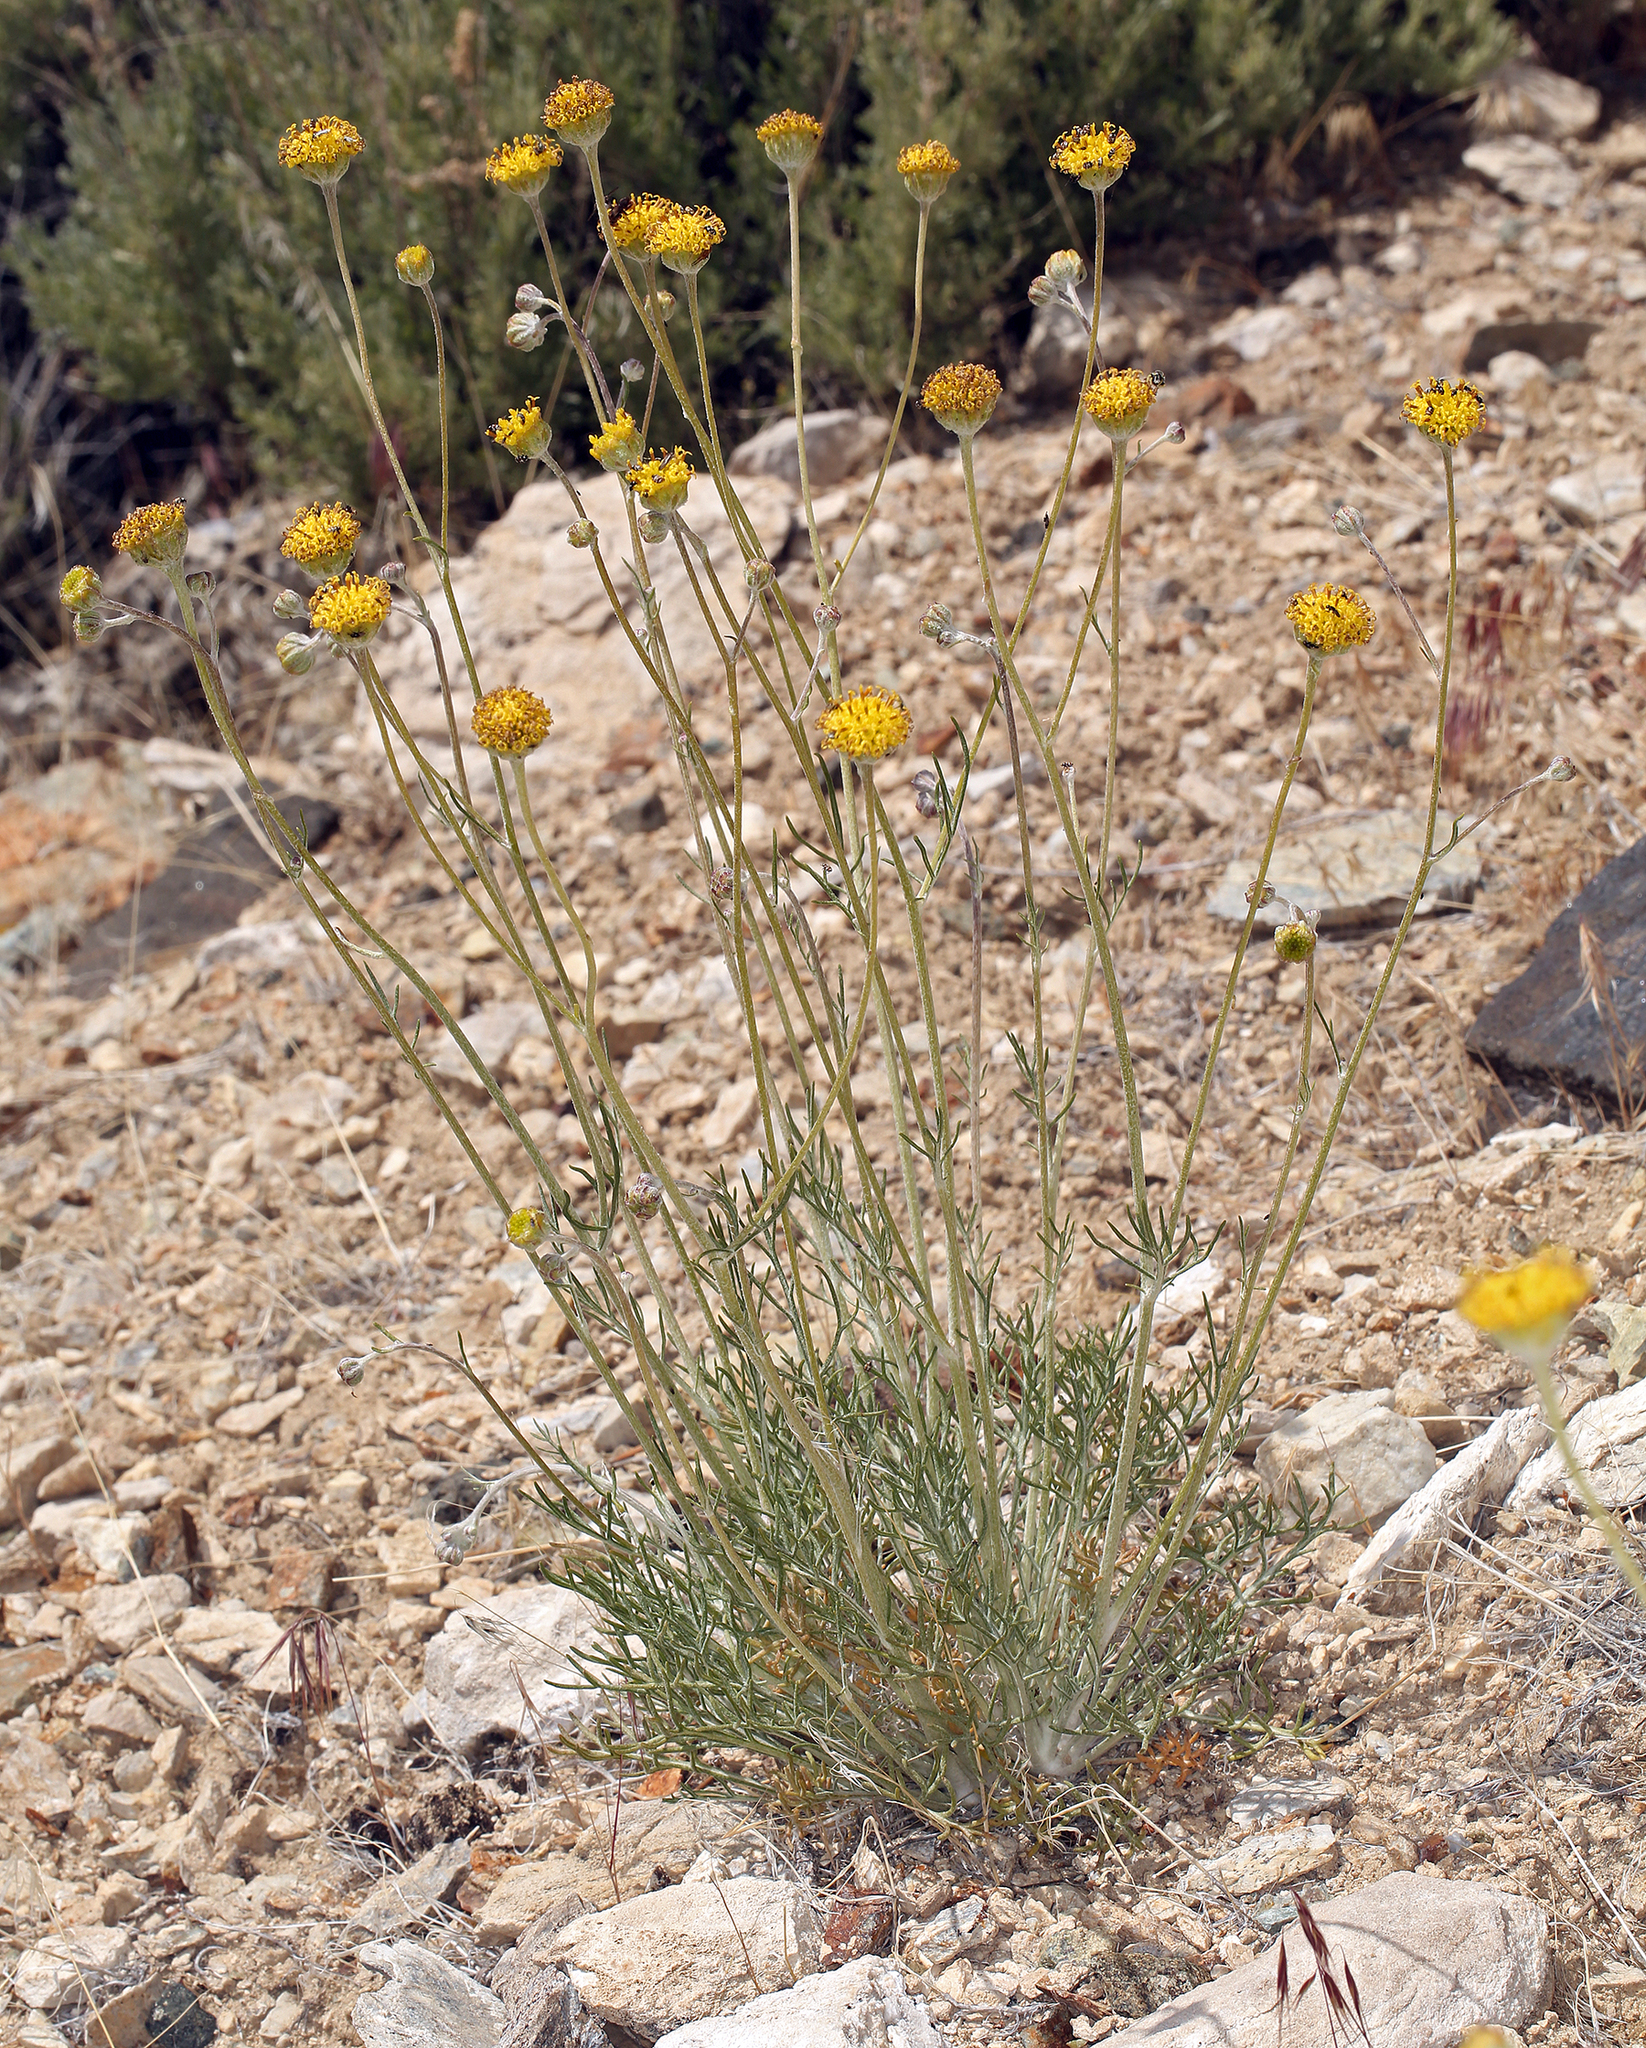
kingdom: Plantae
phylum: Tracheophyta
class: Magnoliopsida
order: Asterales
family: Asteraceae
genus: Hymenopappus
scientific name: Hymenopappus filifolius
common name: Columbia cutleaf
